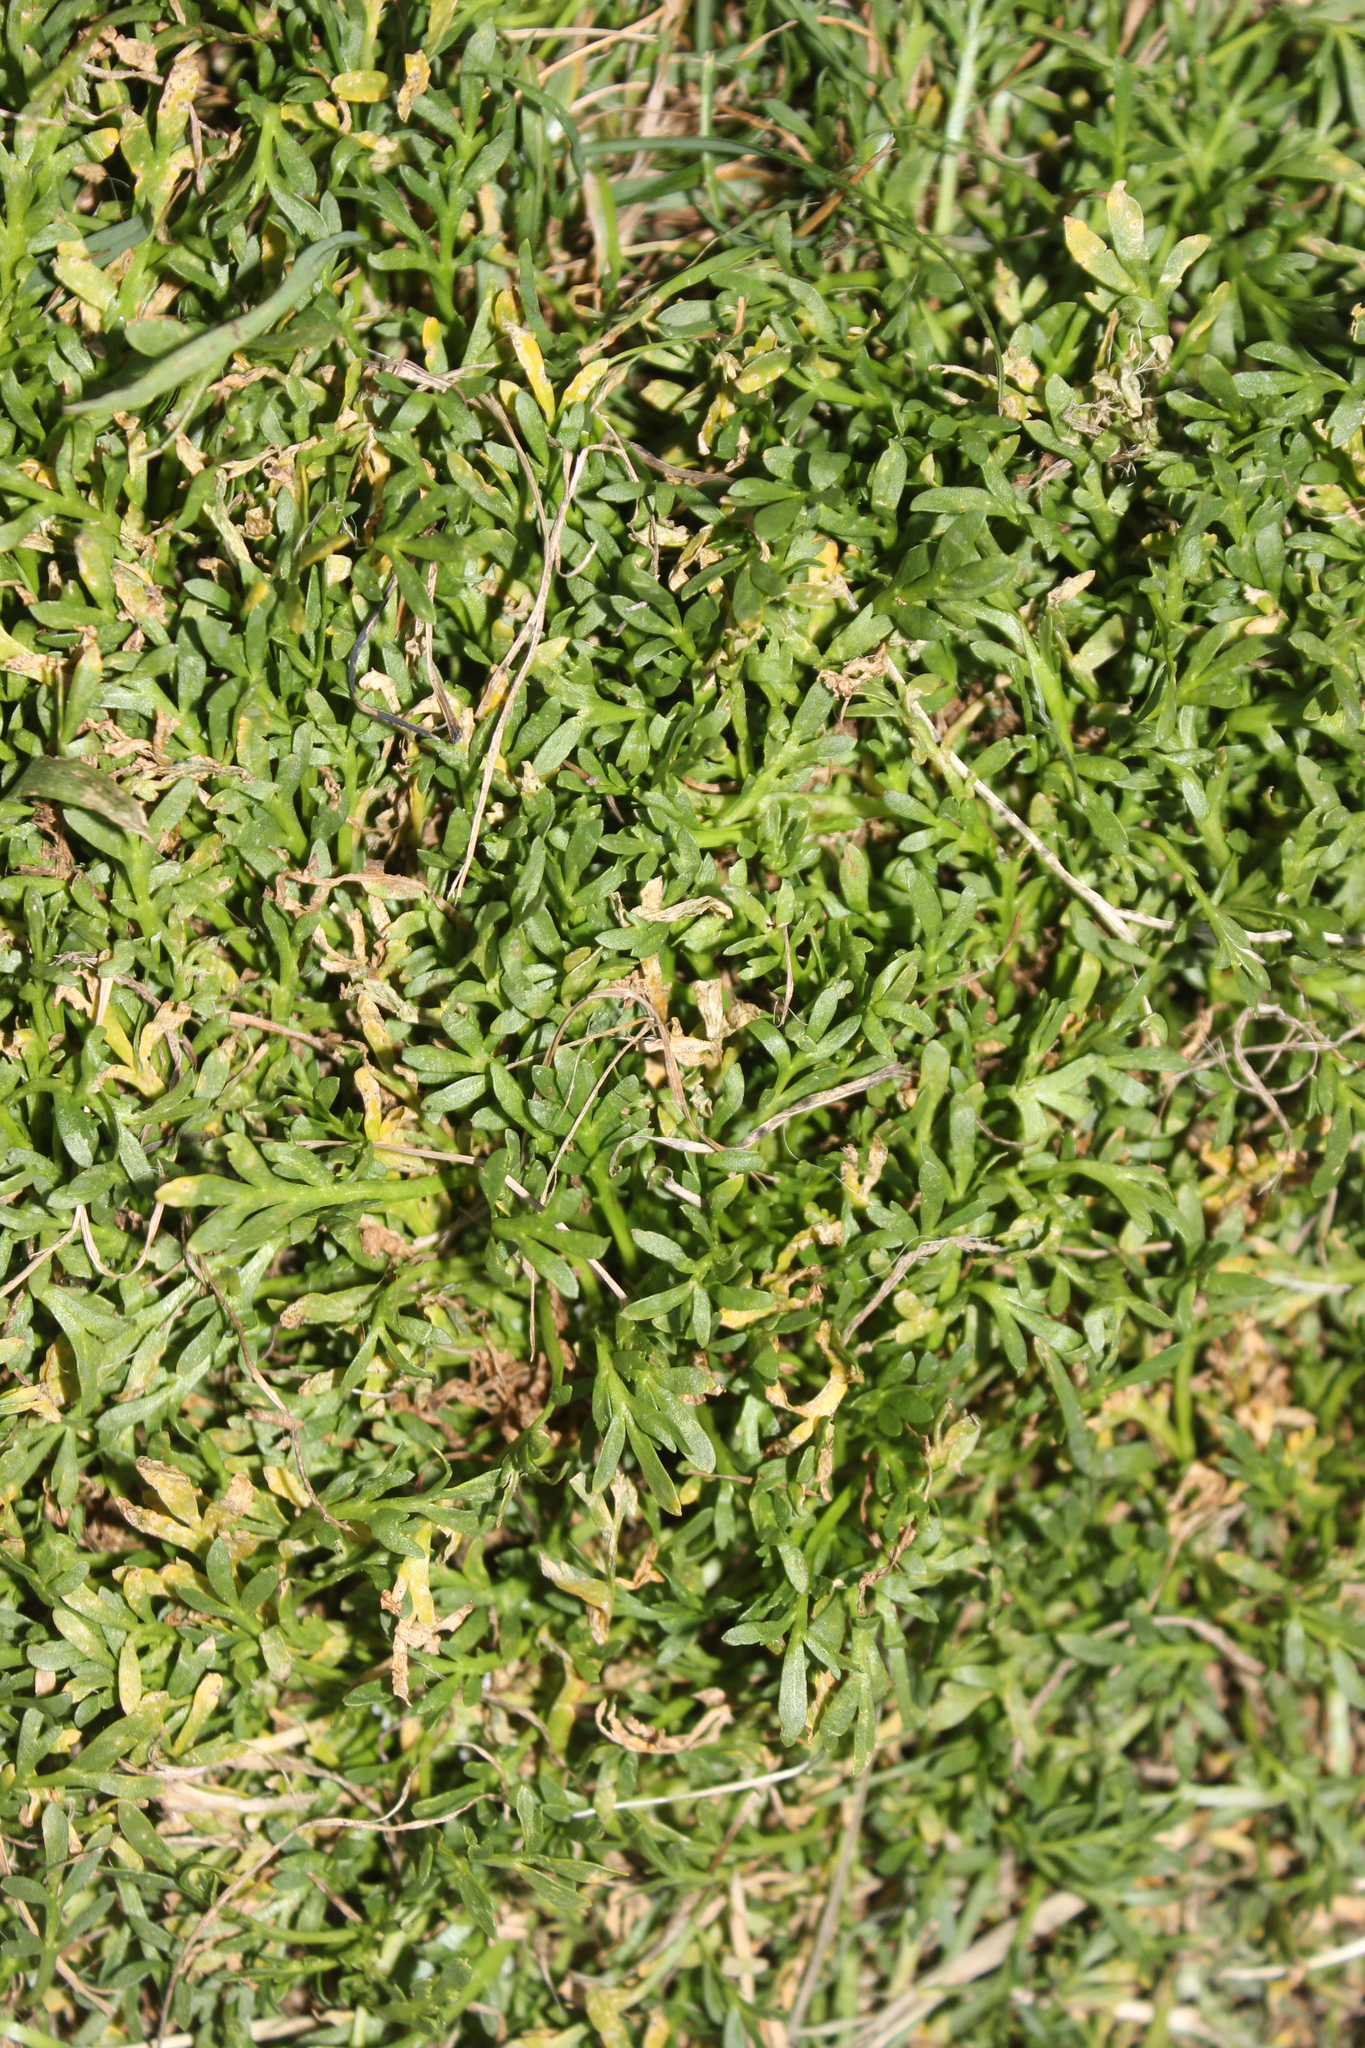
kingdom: Plantae
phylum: Tracheophyta
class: Magnoliopsida
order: Brassicales
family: Brassicaceae
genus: Lepidium
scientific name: Lepidium didymum
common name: Lesser swinecress
